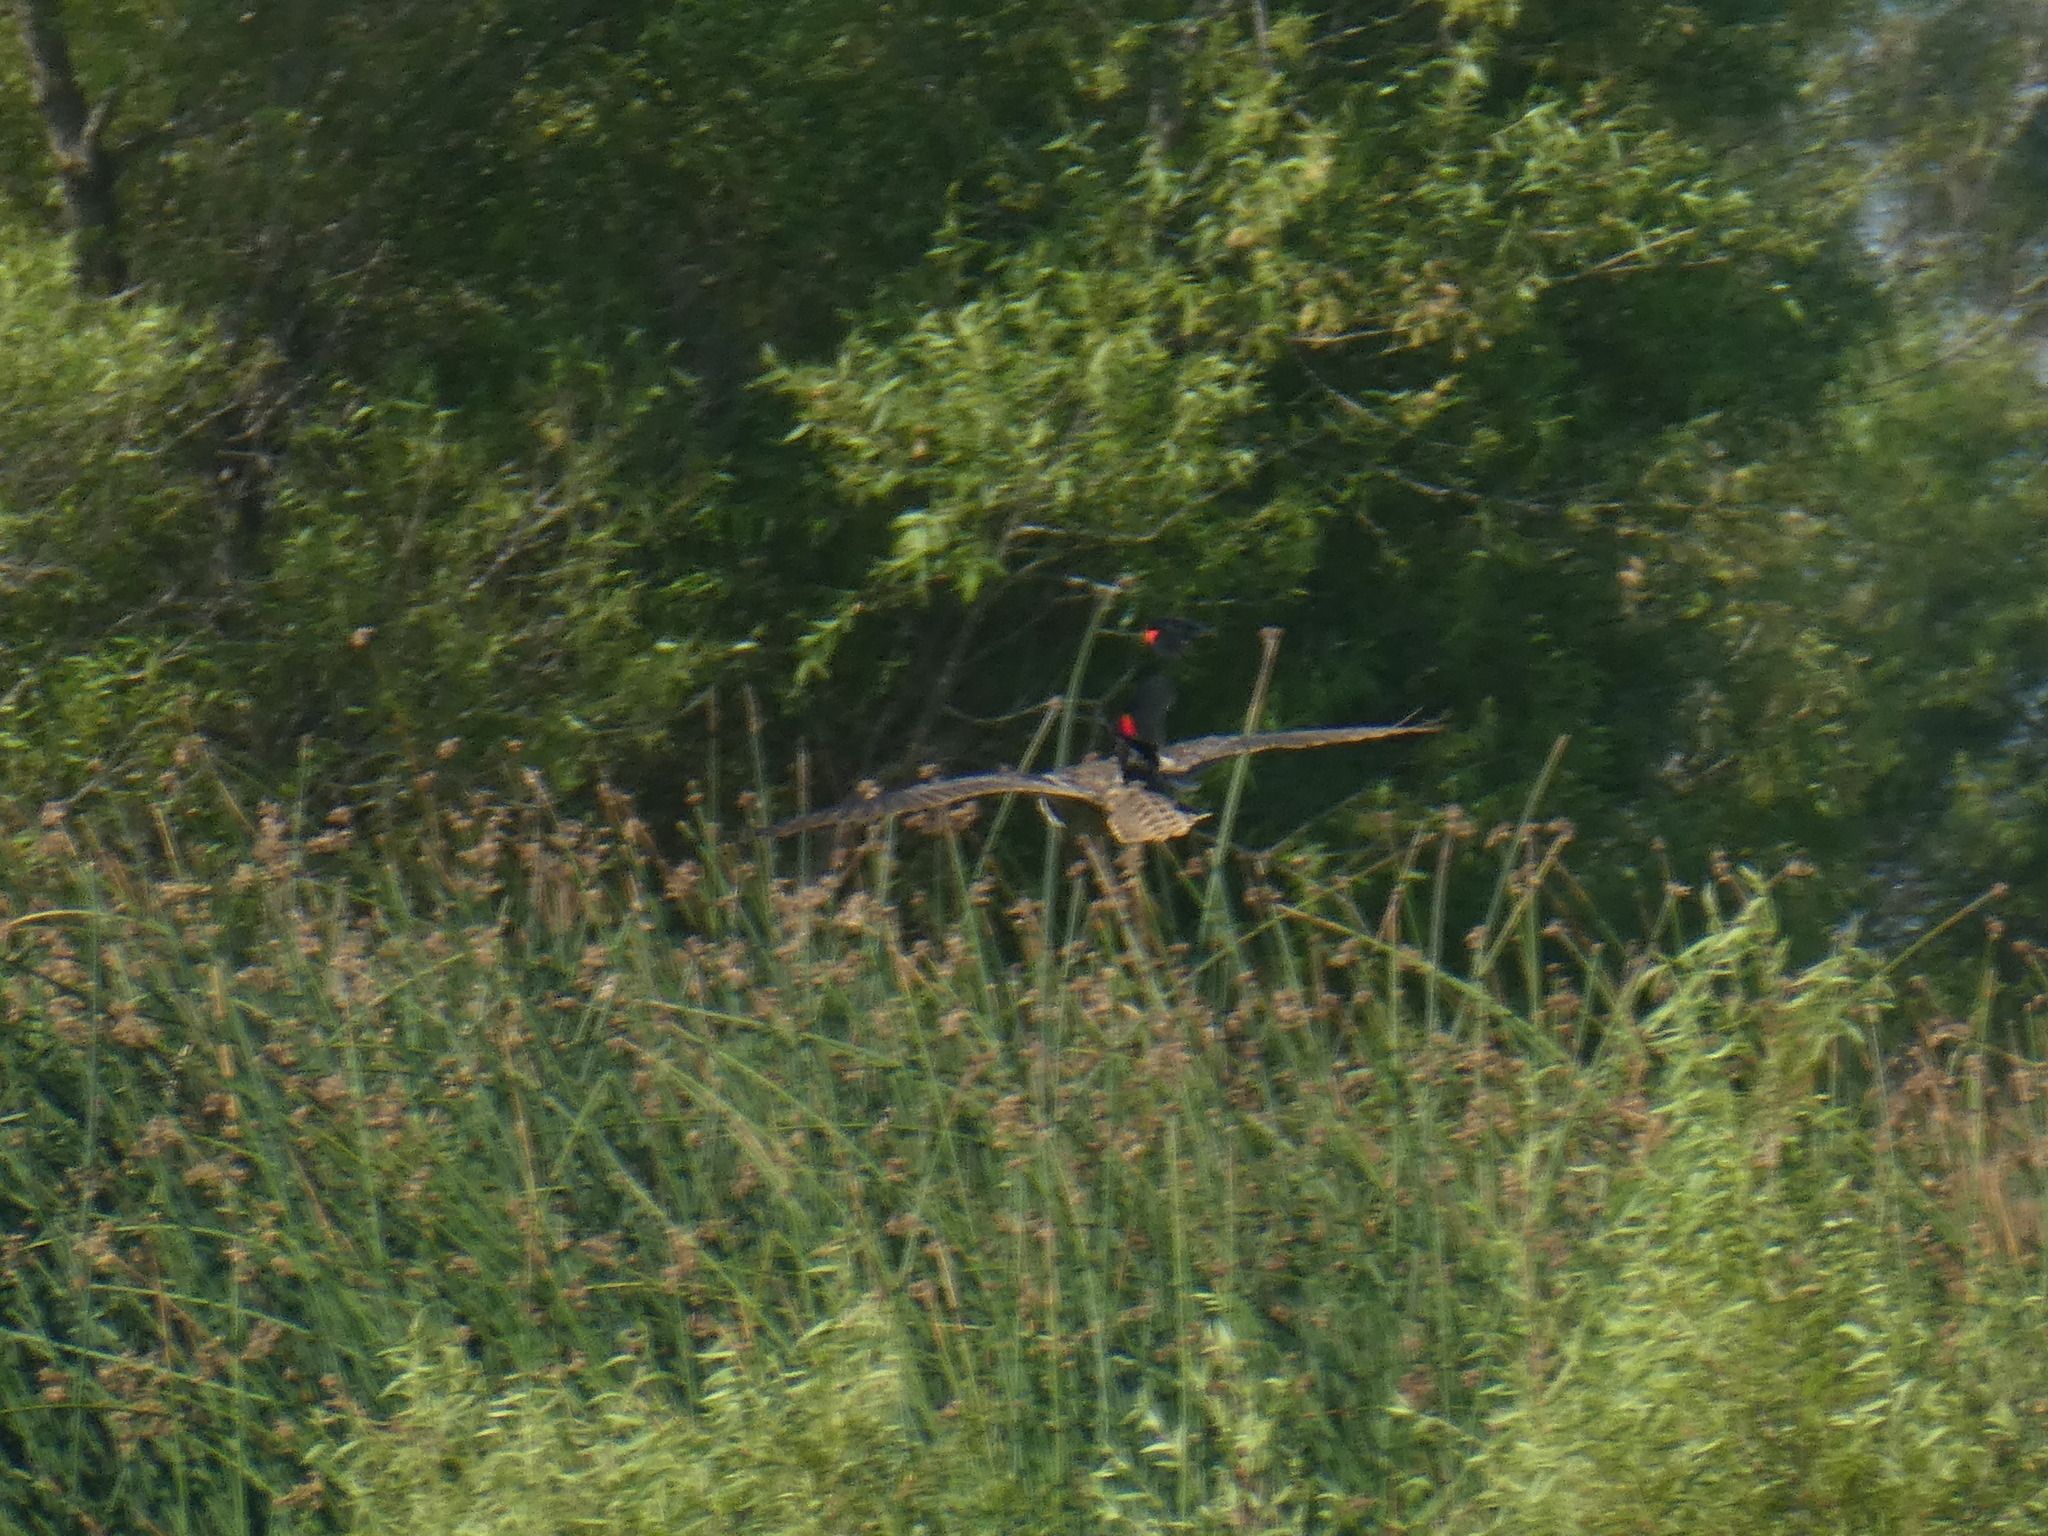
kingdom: Animalia
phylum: Chordata
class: Aves
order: Strigiformes
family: Strigidae
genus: Bubo
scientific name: Bubo virginianus
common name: Great horned owl
